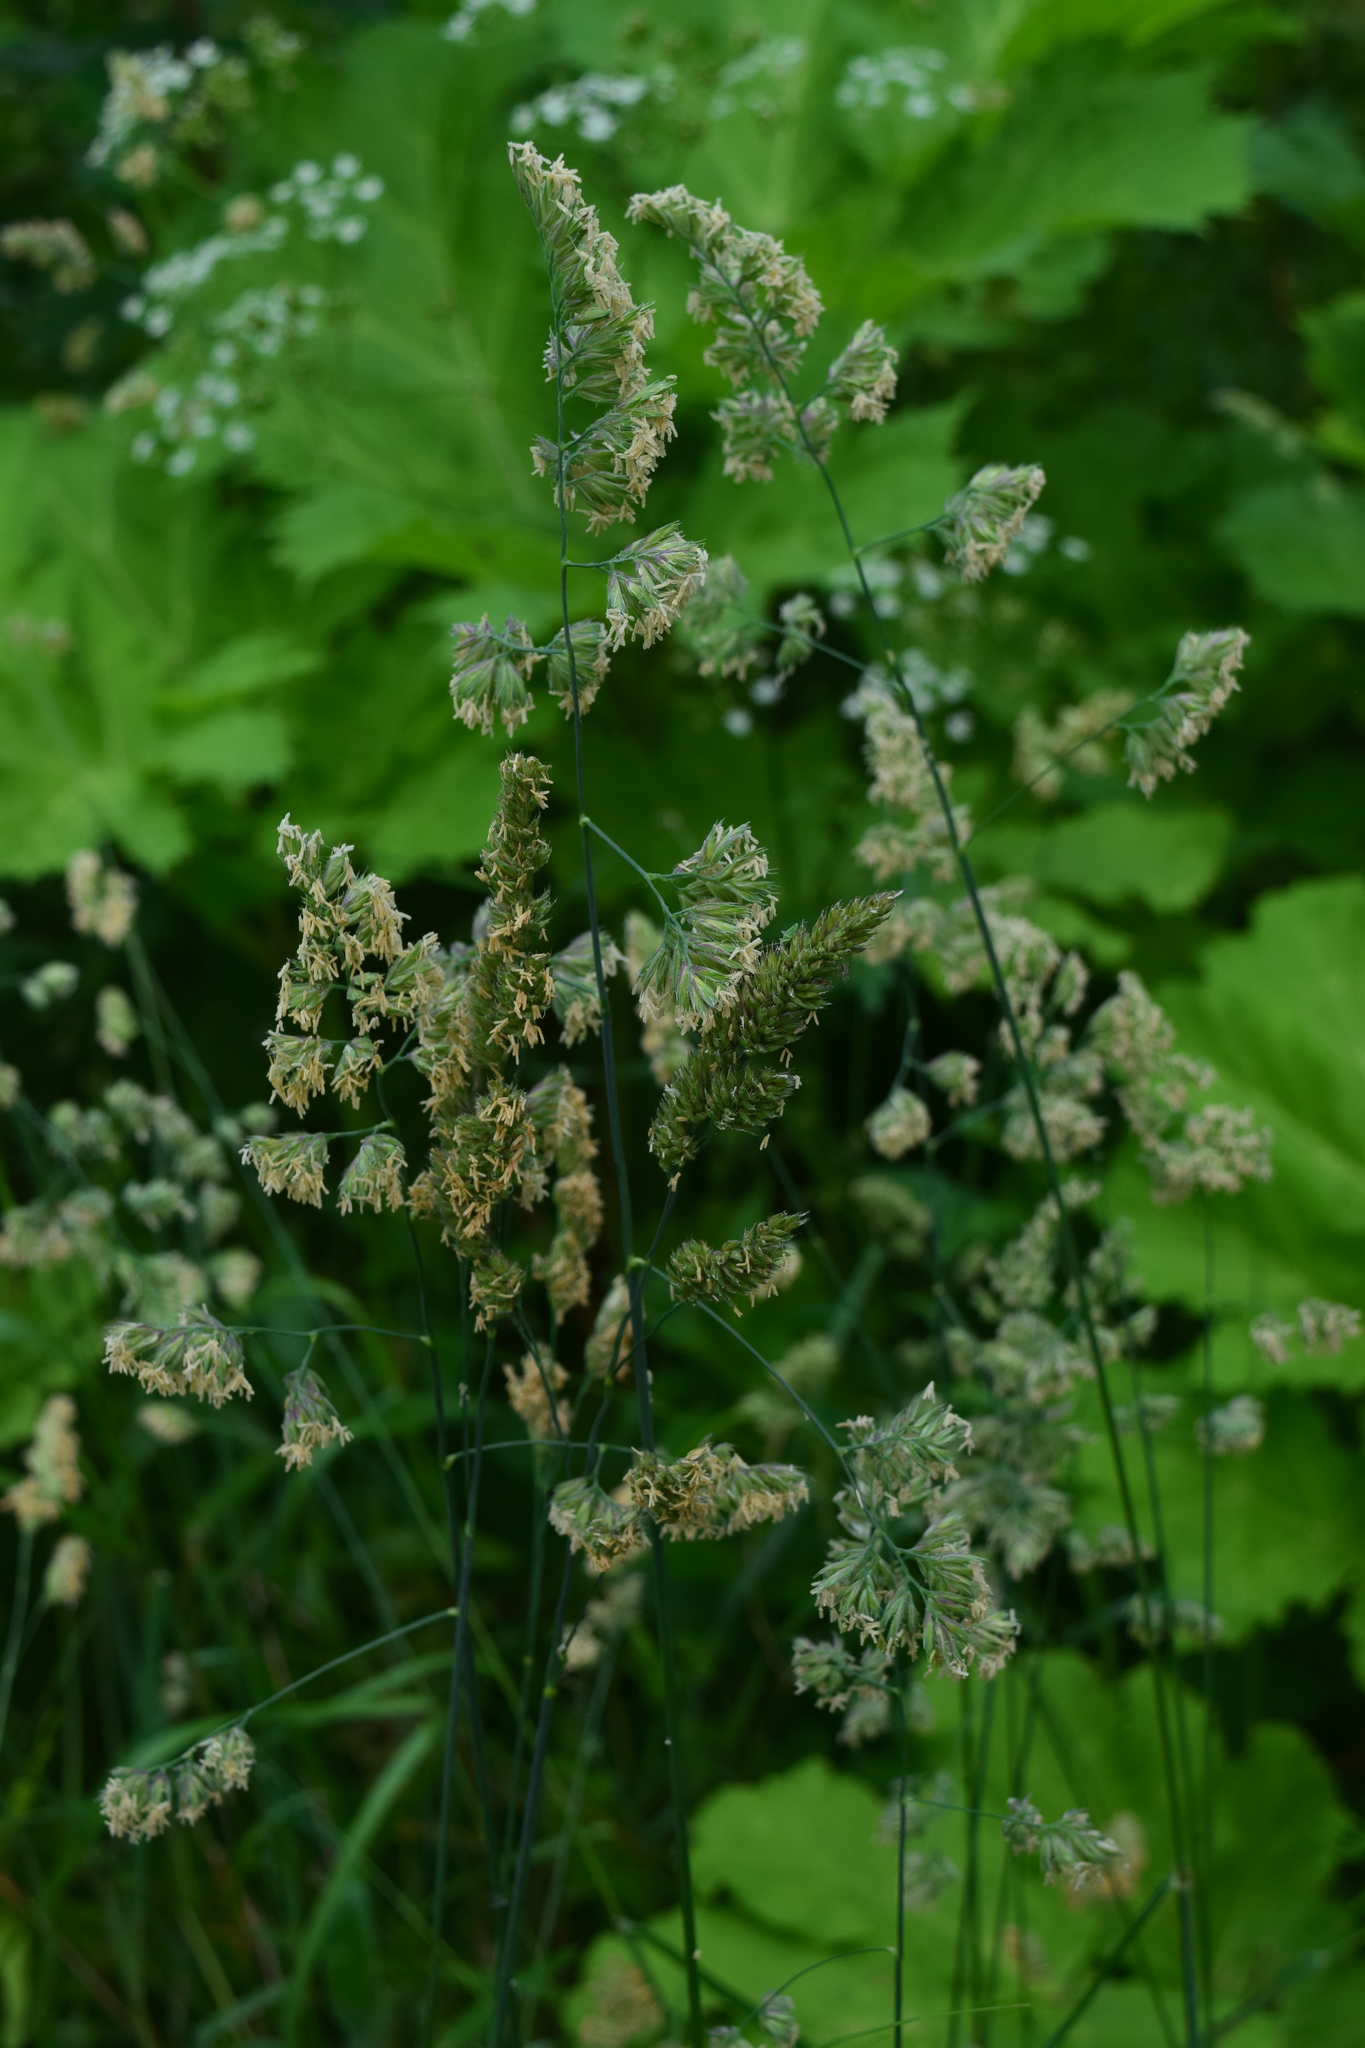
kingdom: Plantae
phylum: Tracheophyta
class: Liliopsida
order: Poales
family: Poaceae
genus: Dactylis
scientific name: Dactylis glomerata
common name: Orchardgrass
